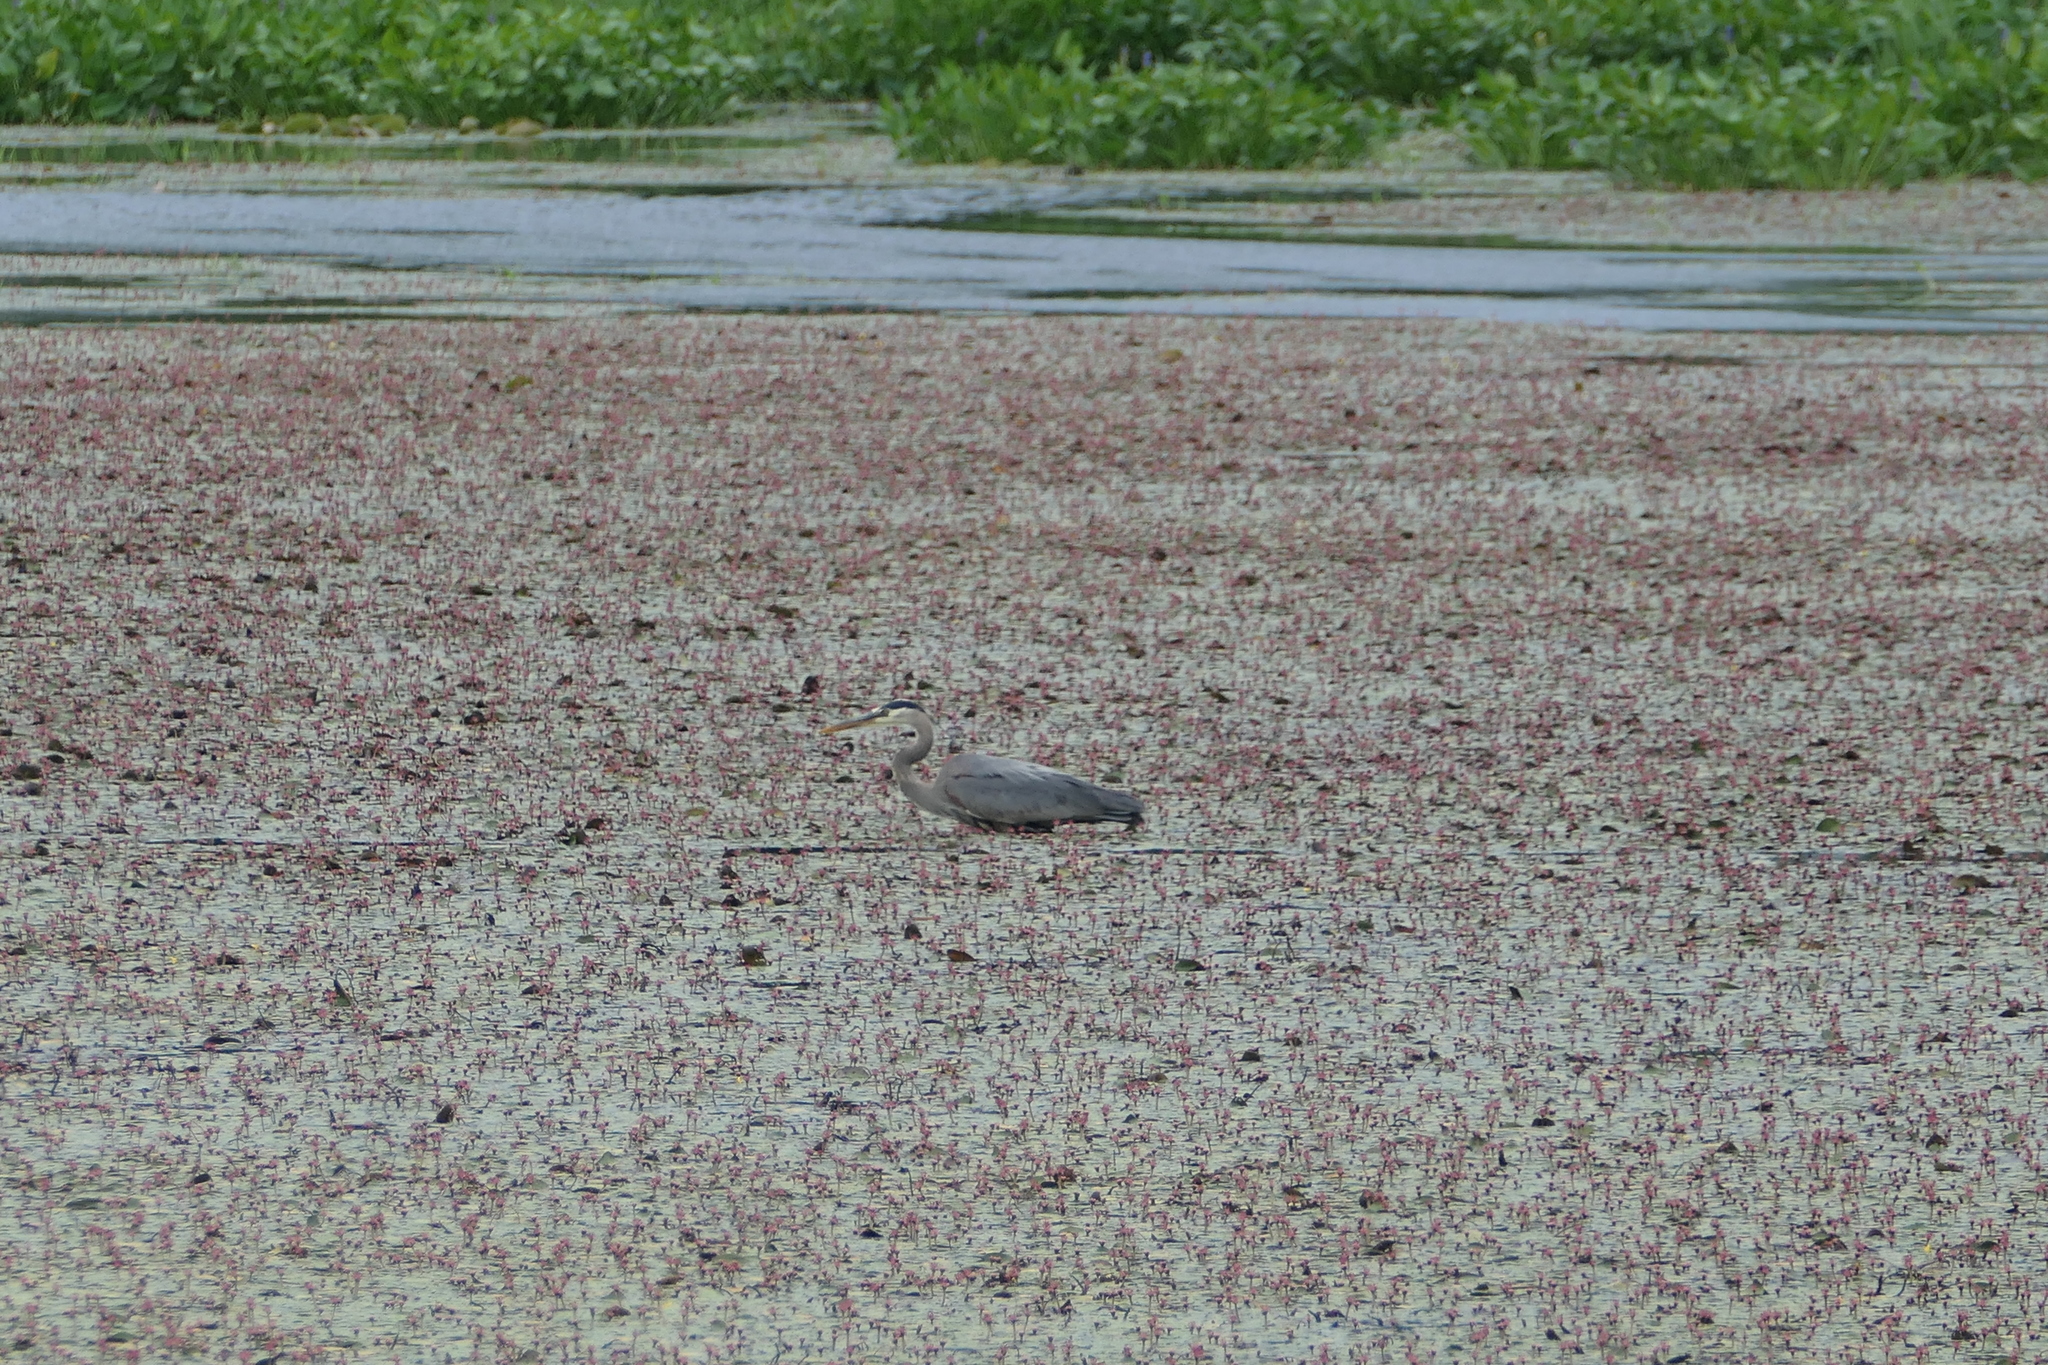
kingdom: Animalia
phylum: Chordata
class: Aves
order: Pelecaniformes
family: Ardeidae
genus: Ardea
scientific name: Ardea herodias
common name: Great blue heron
